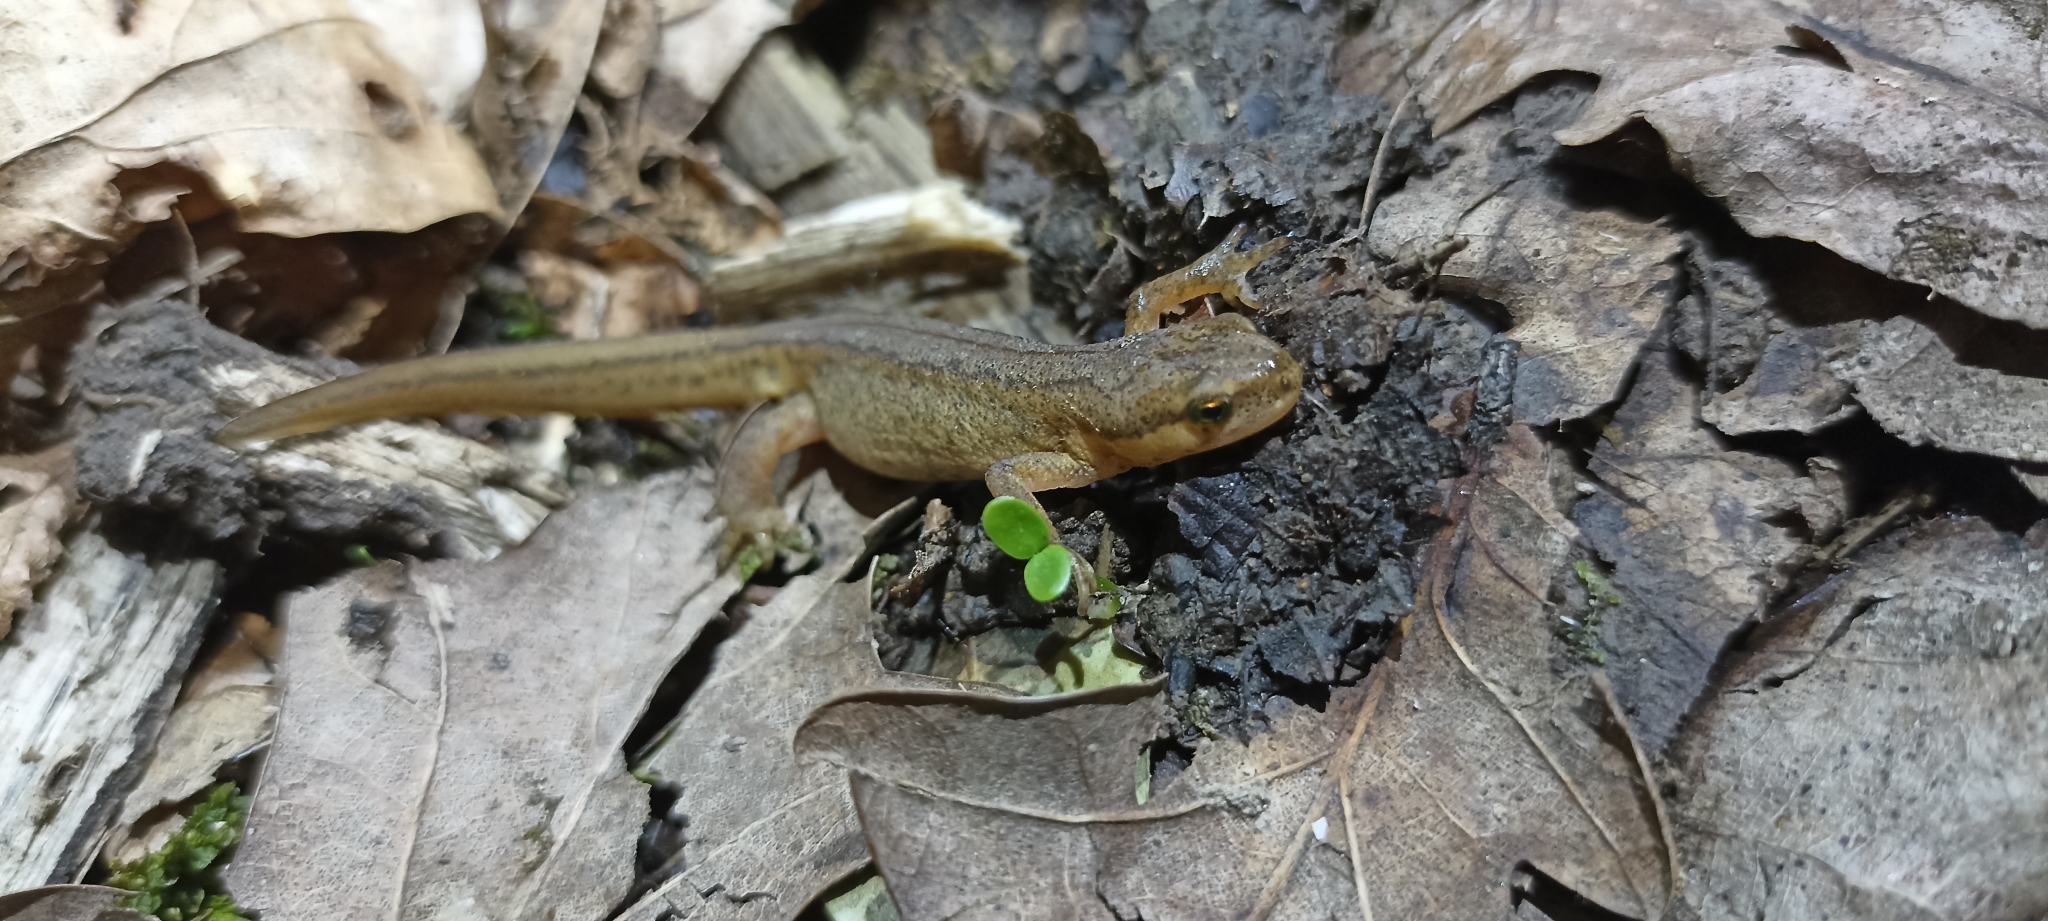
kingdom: Animalia
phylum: Chordata
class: Amphibia
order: Caudata
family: Salamandridae
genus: Lissotriton
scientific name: Lissotriton helveticus
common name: Palmate newt
